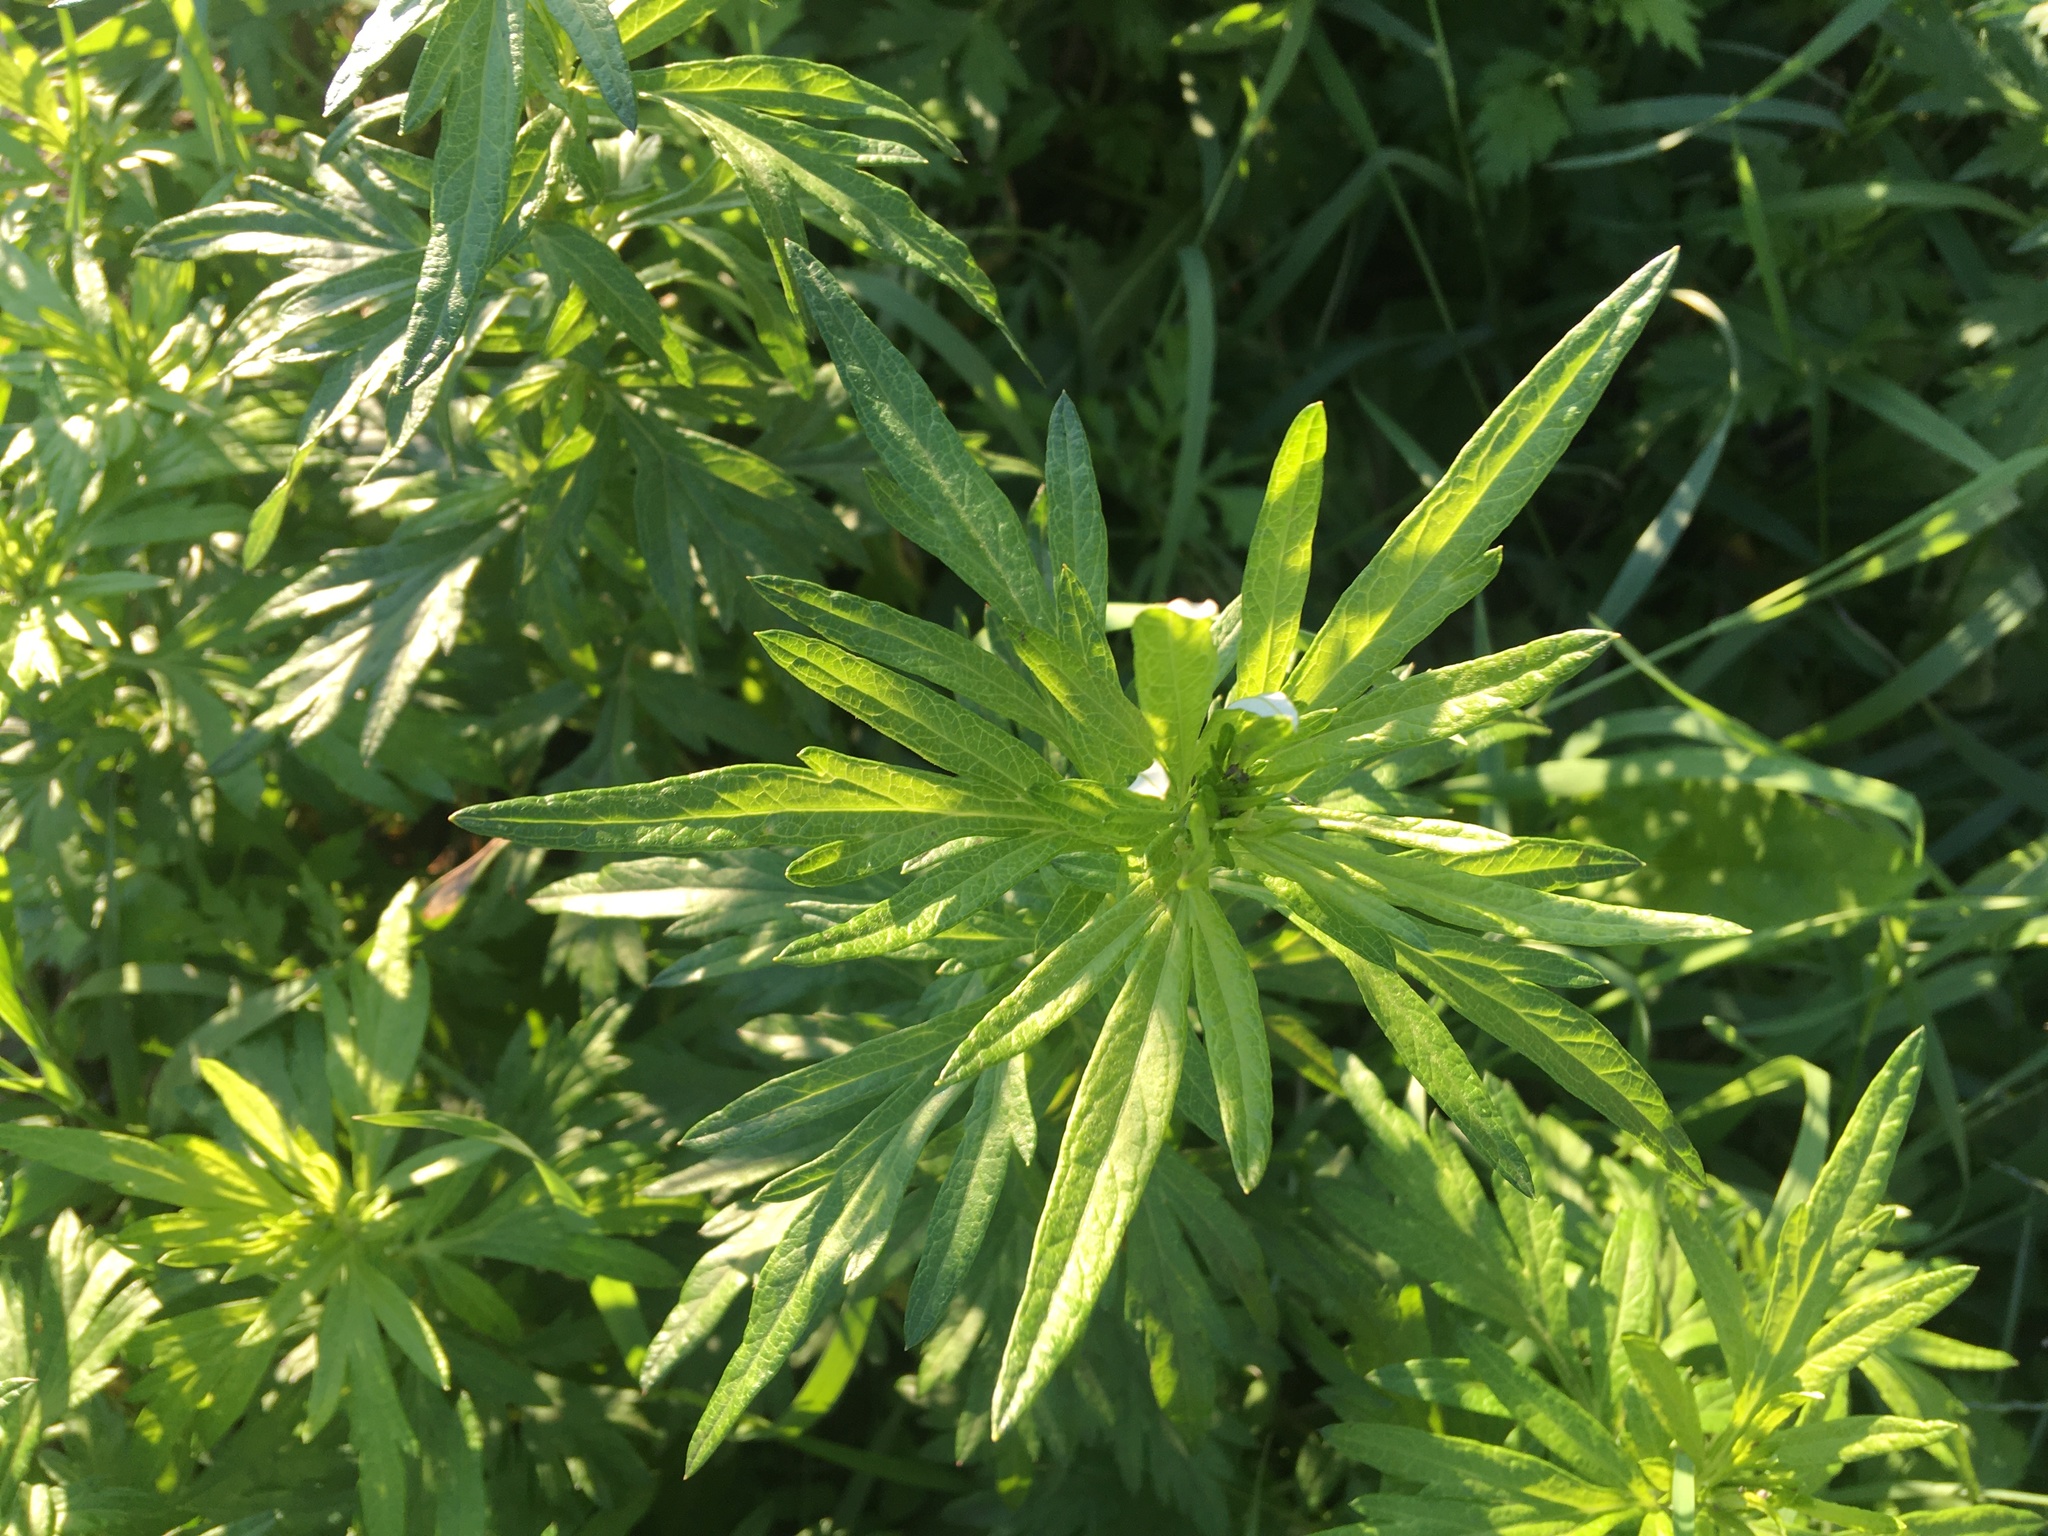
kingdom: Plantae
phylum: Tracheophyta
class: Magnoliopsida
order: Asterales
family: Asteraceae
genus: Artemisia
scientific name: Artemisia vulgaris
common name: Mugwort
